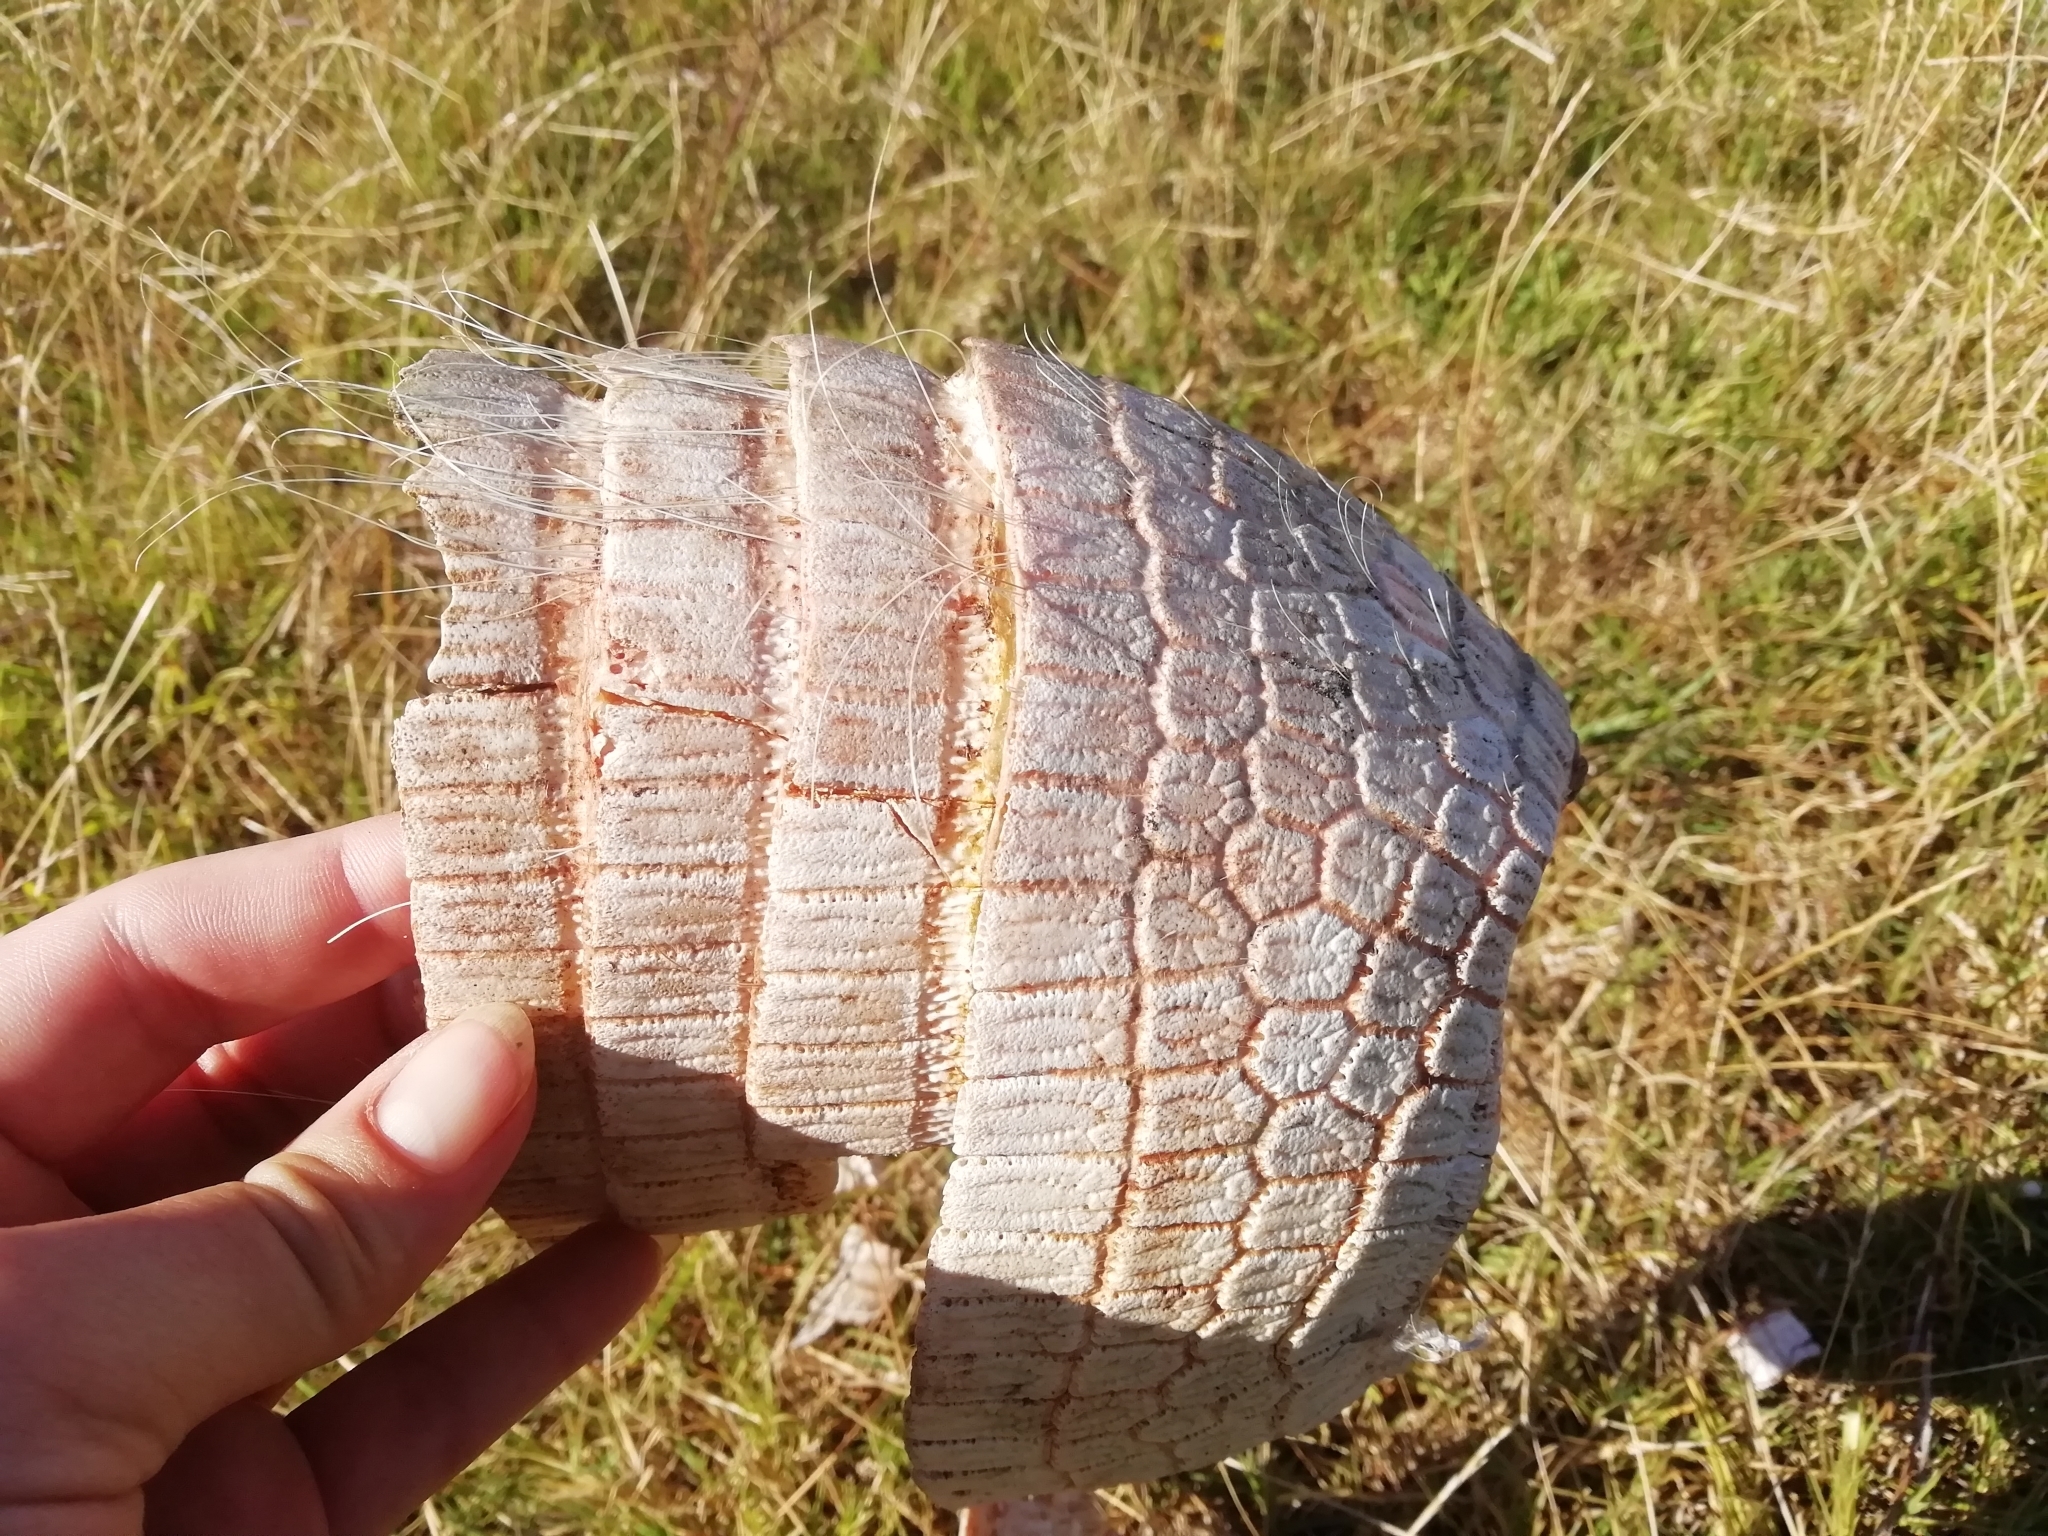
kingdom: Animalia
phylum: Chordata
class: Mammalia
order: Cingulata
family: Dasypodidae
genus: Euphractus
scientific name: Euphractus sexcinctus
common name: Six-banded armadillo
